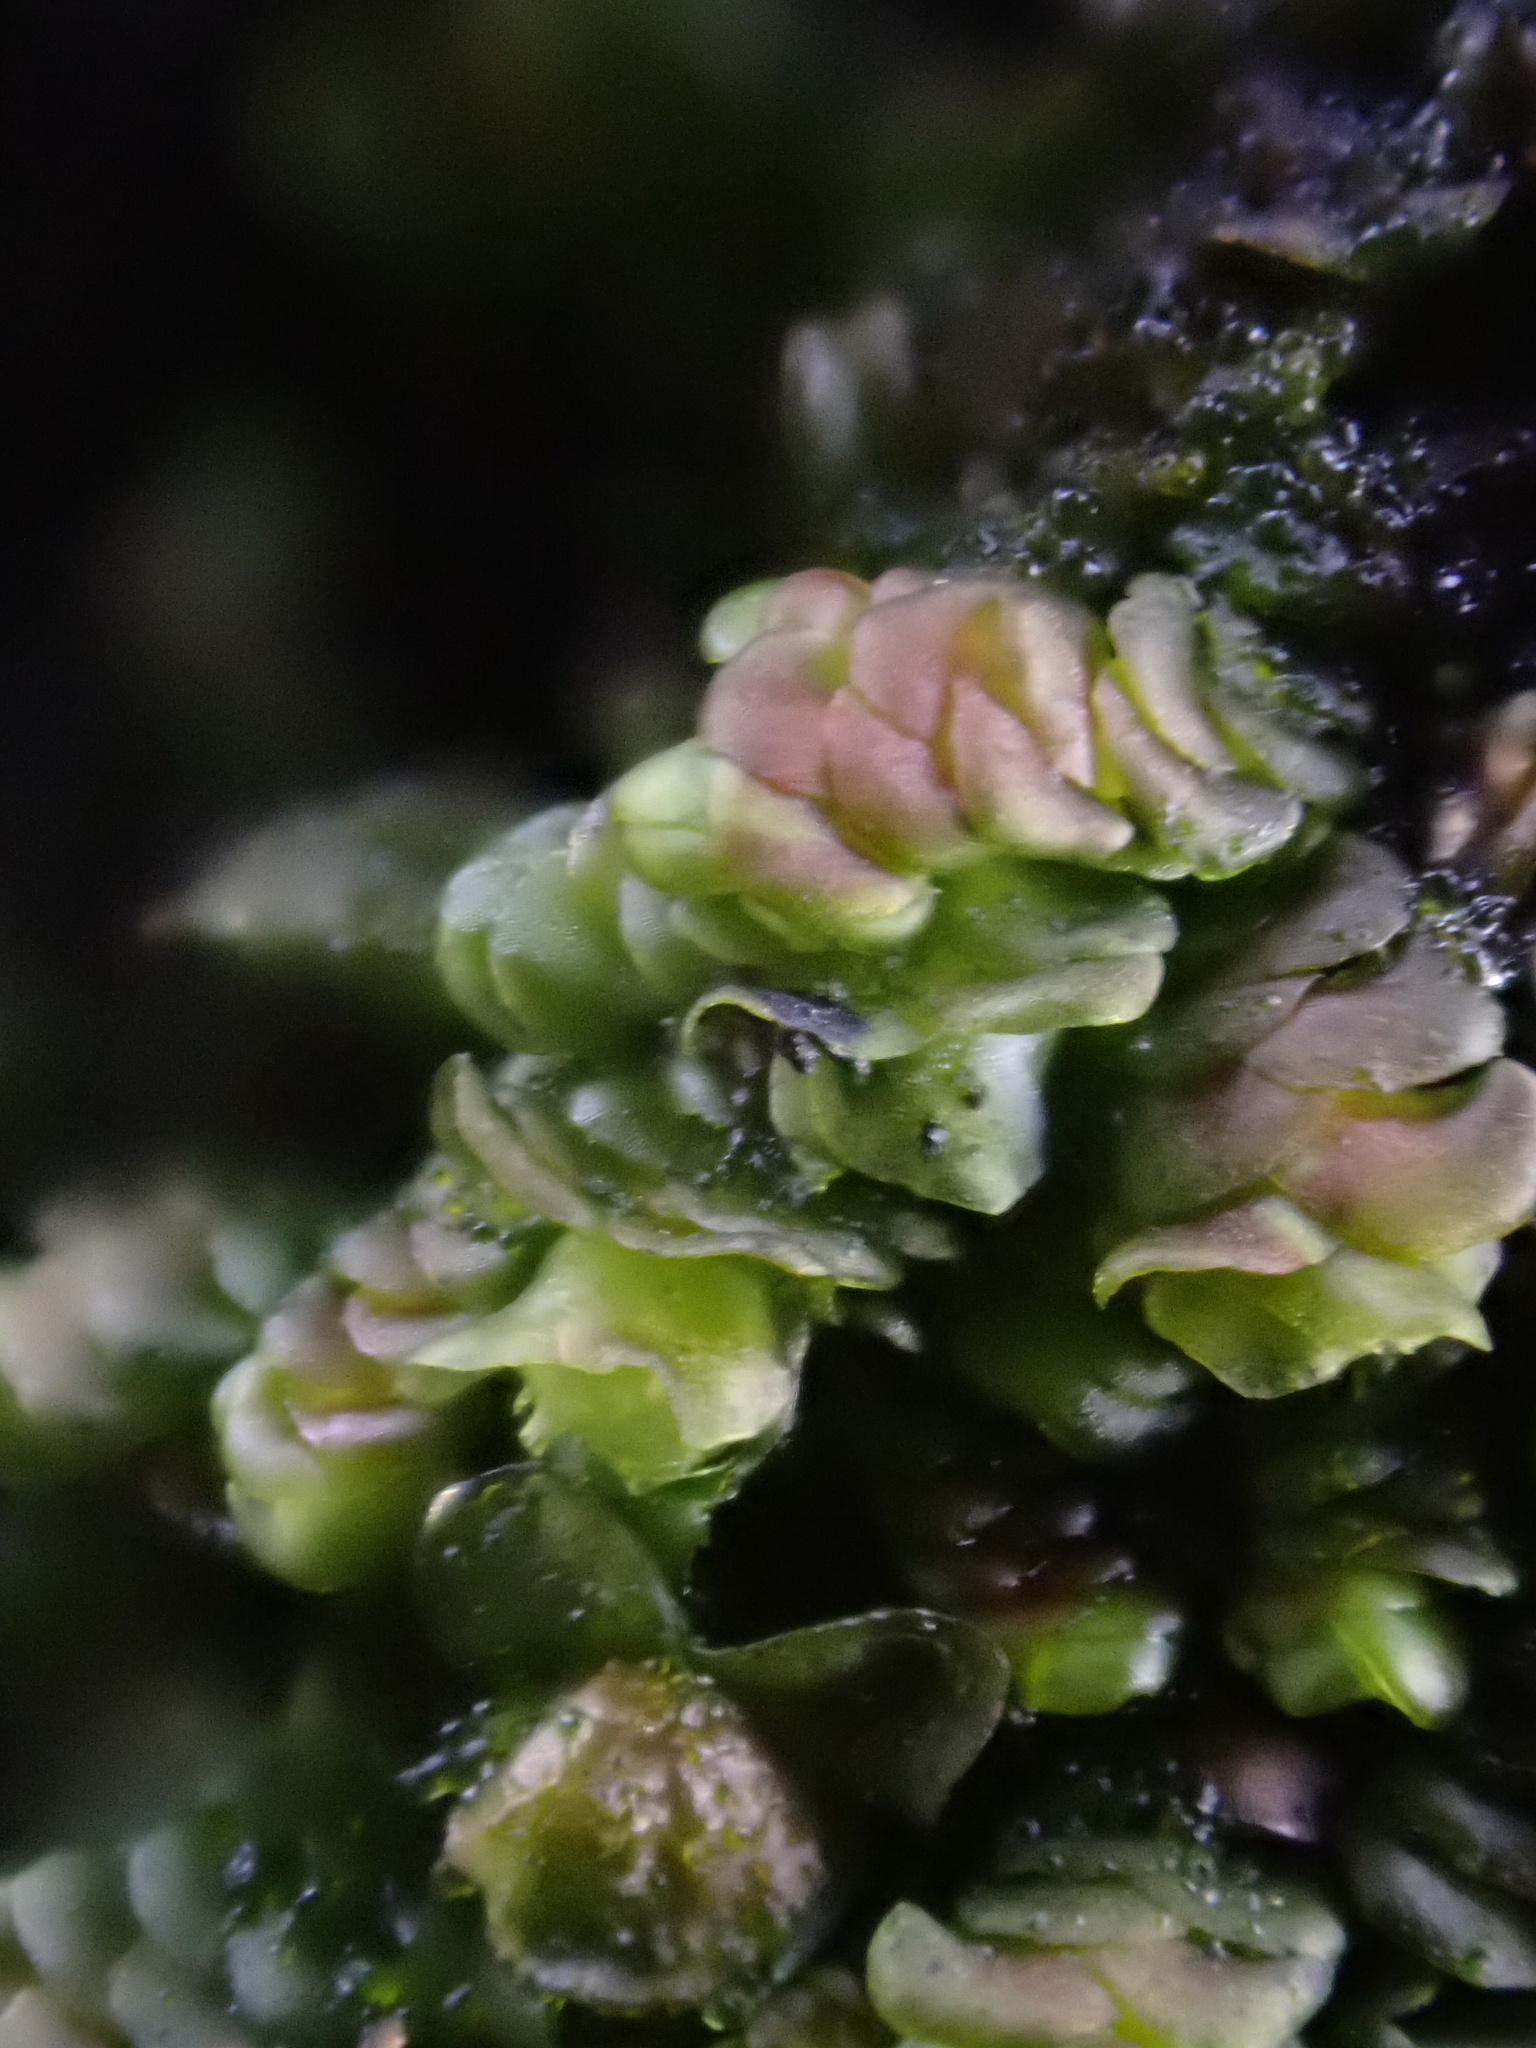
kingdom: Plantae
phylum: Marchantiophyta
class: Jungermanniopsida
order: Porellales
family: Frullaniaceae
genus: Frullania
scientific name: Frullania dilatata
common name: Dilated scalewort
